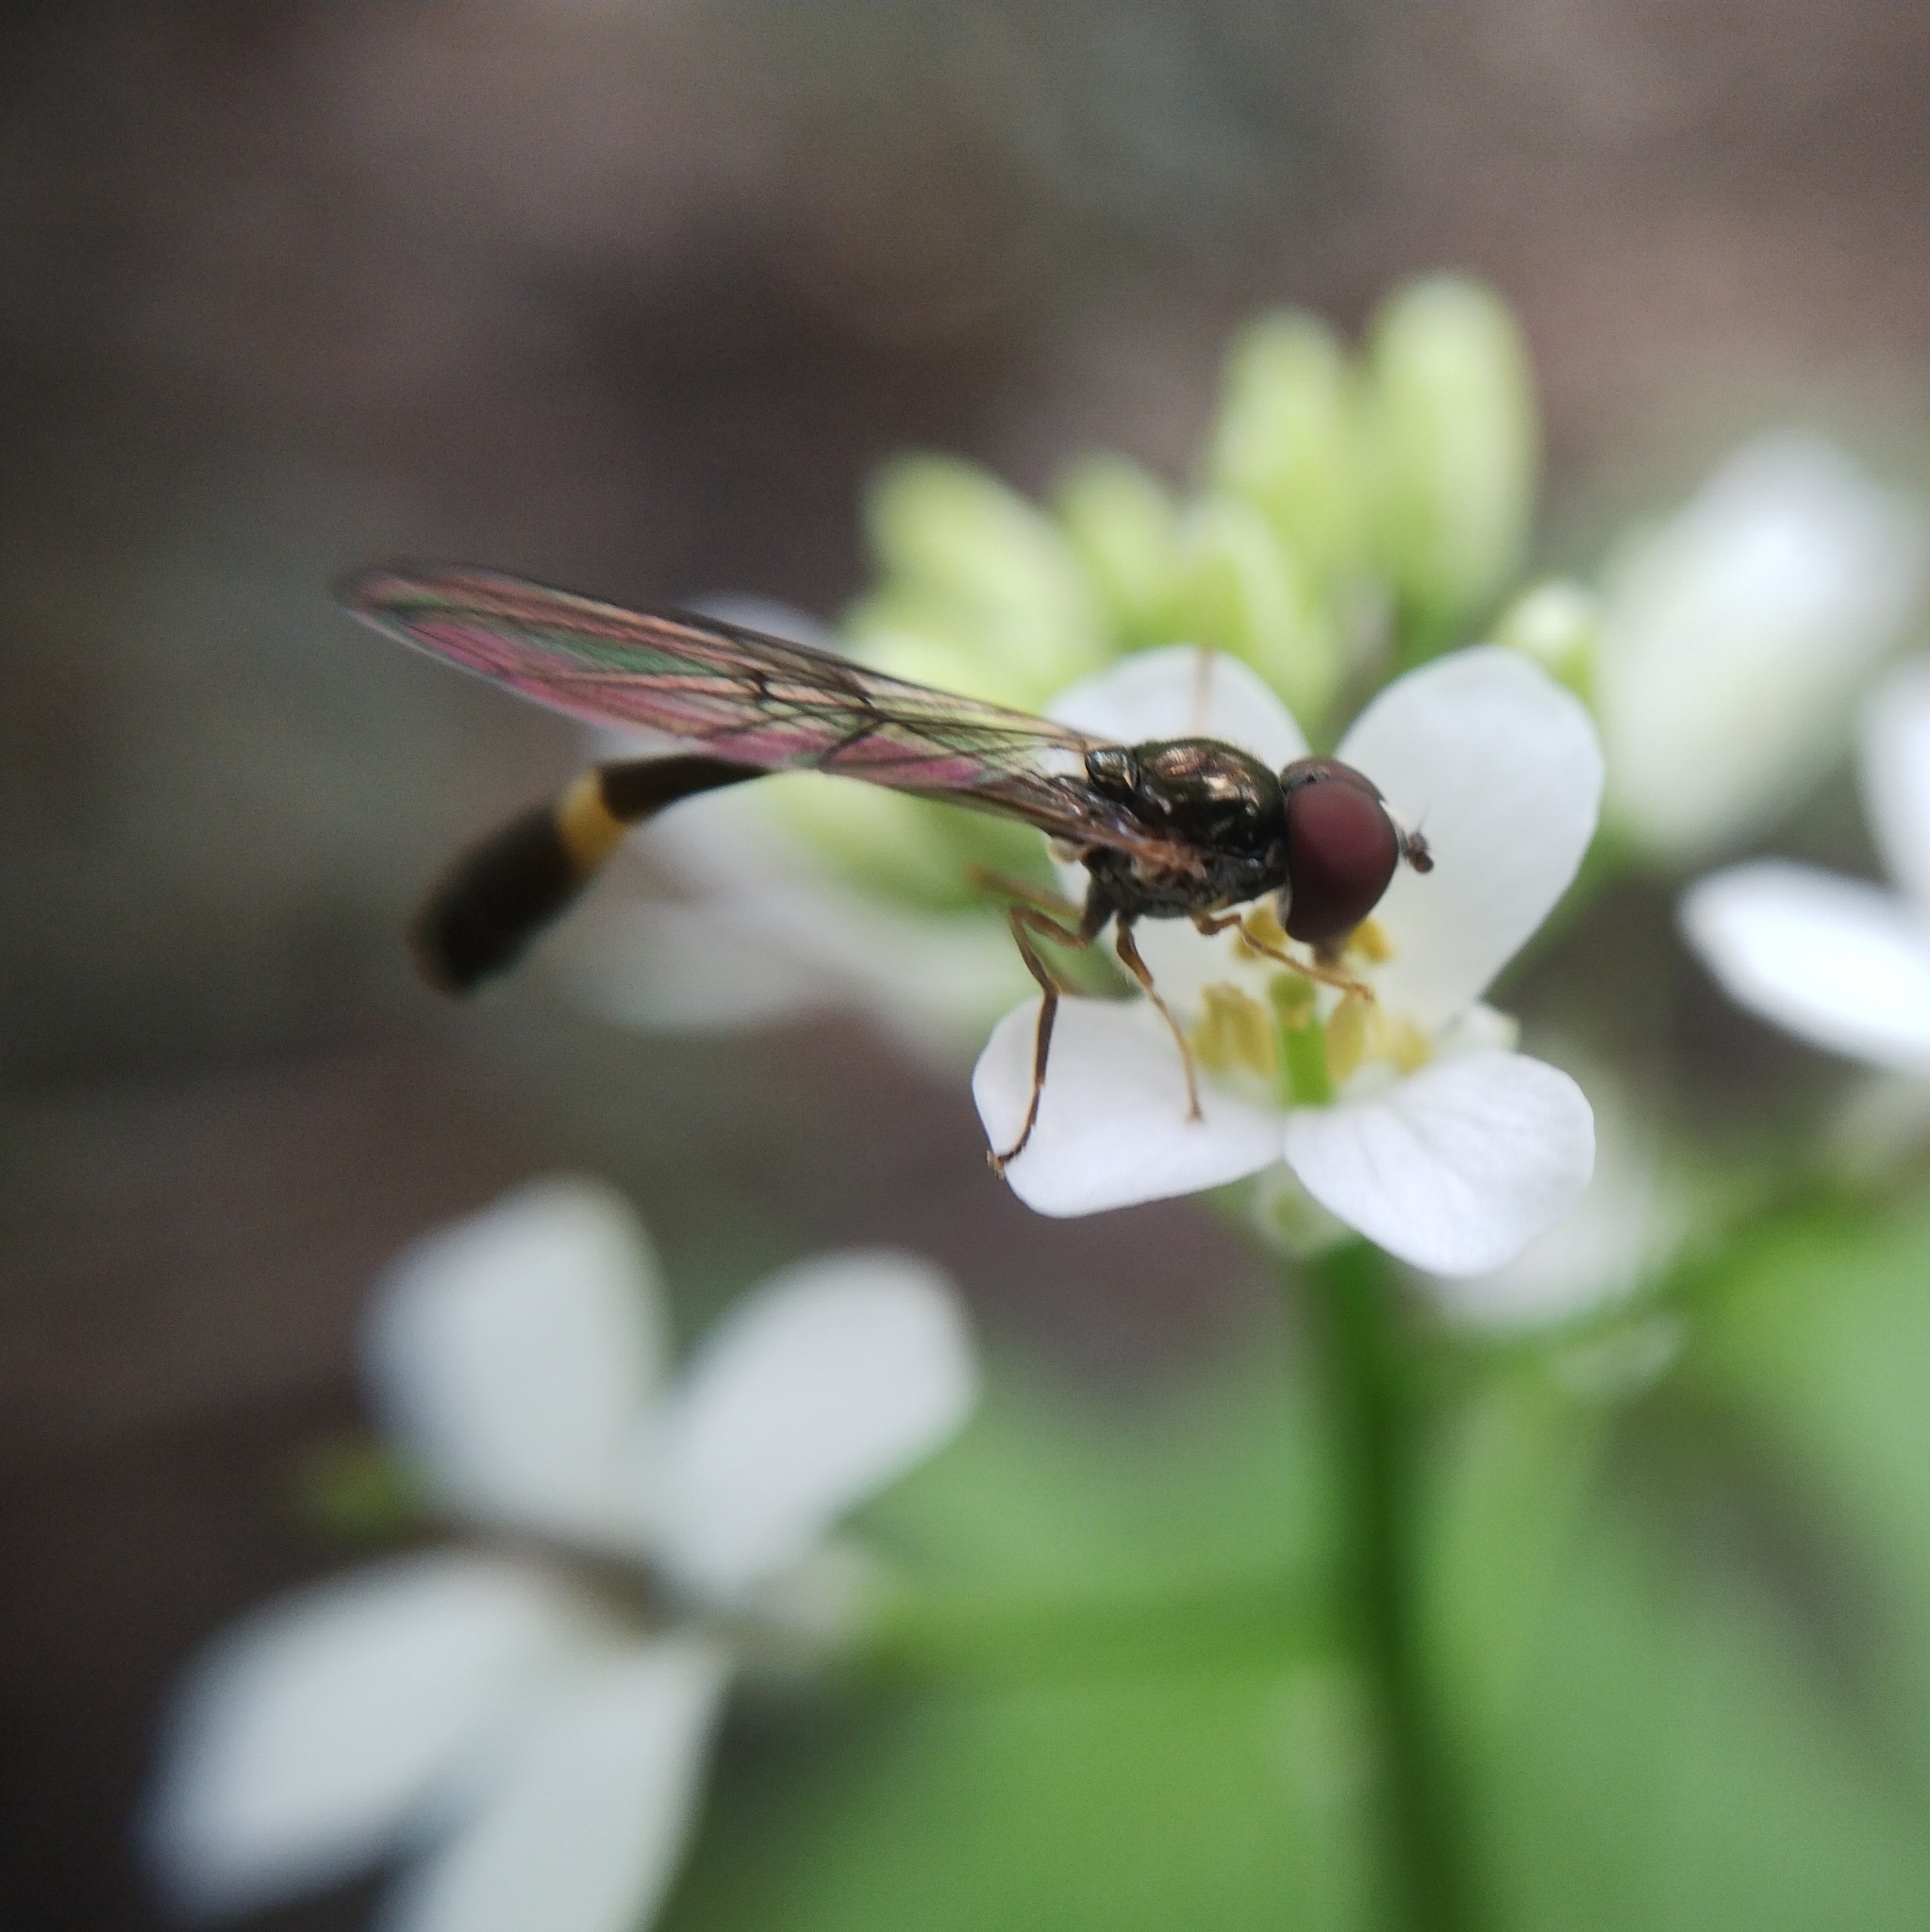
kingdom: Animalia
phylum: Arthropoda
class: Insecta
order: Diptera
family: Syrphidae
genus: Baccha
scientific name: Baccha elongata
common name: Common dainty
